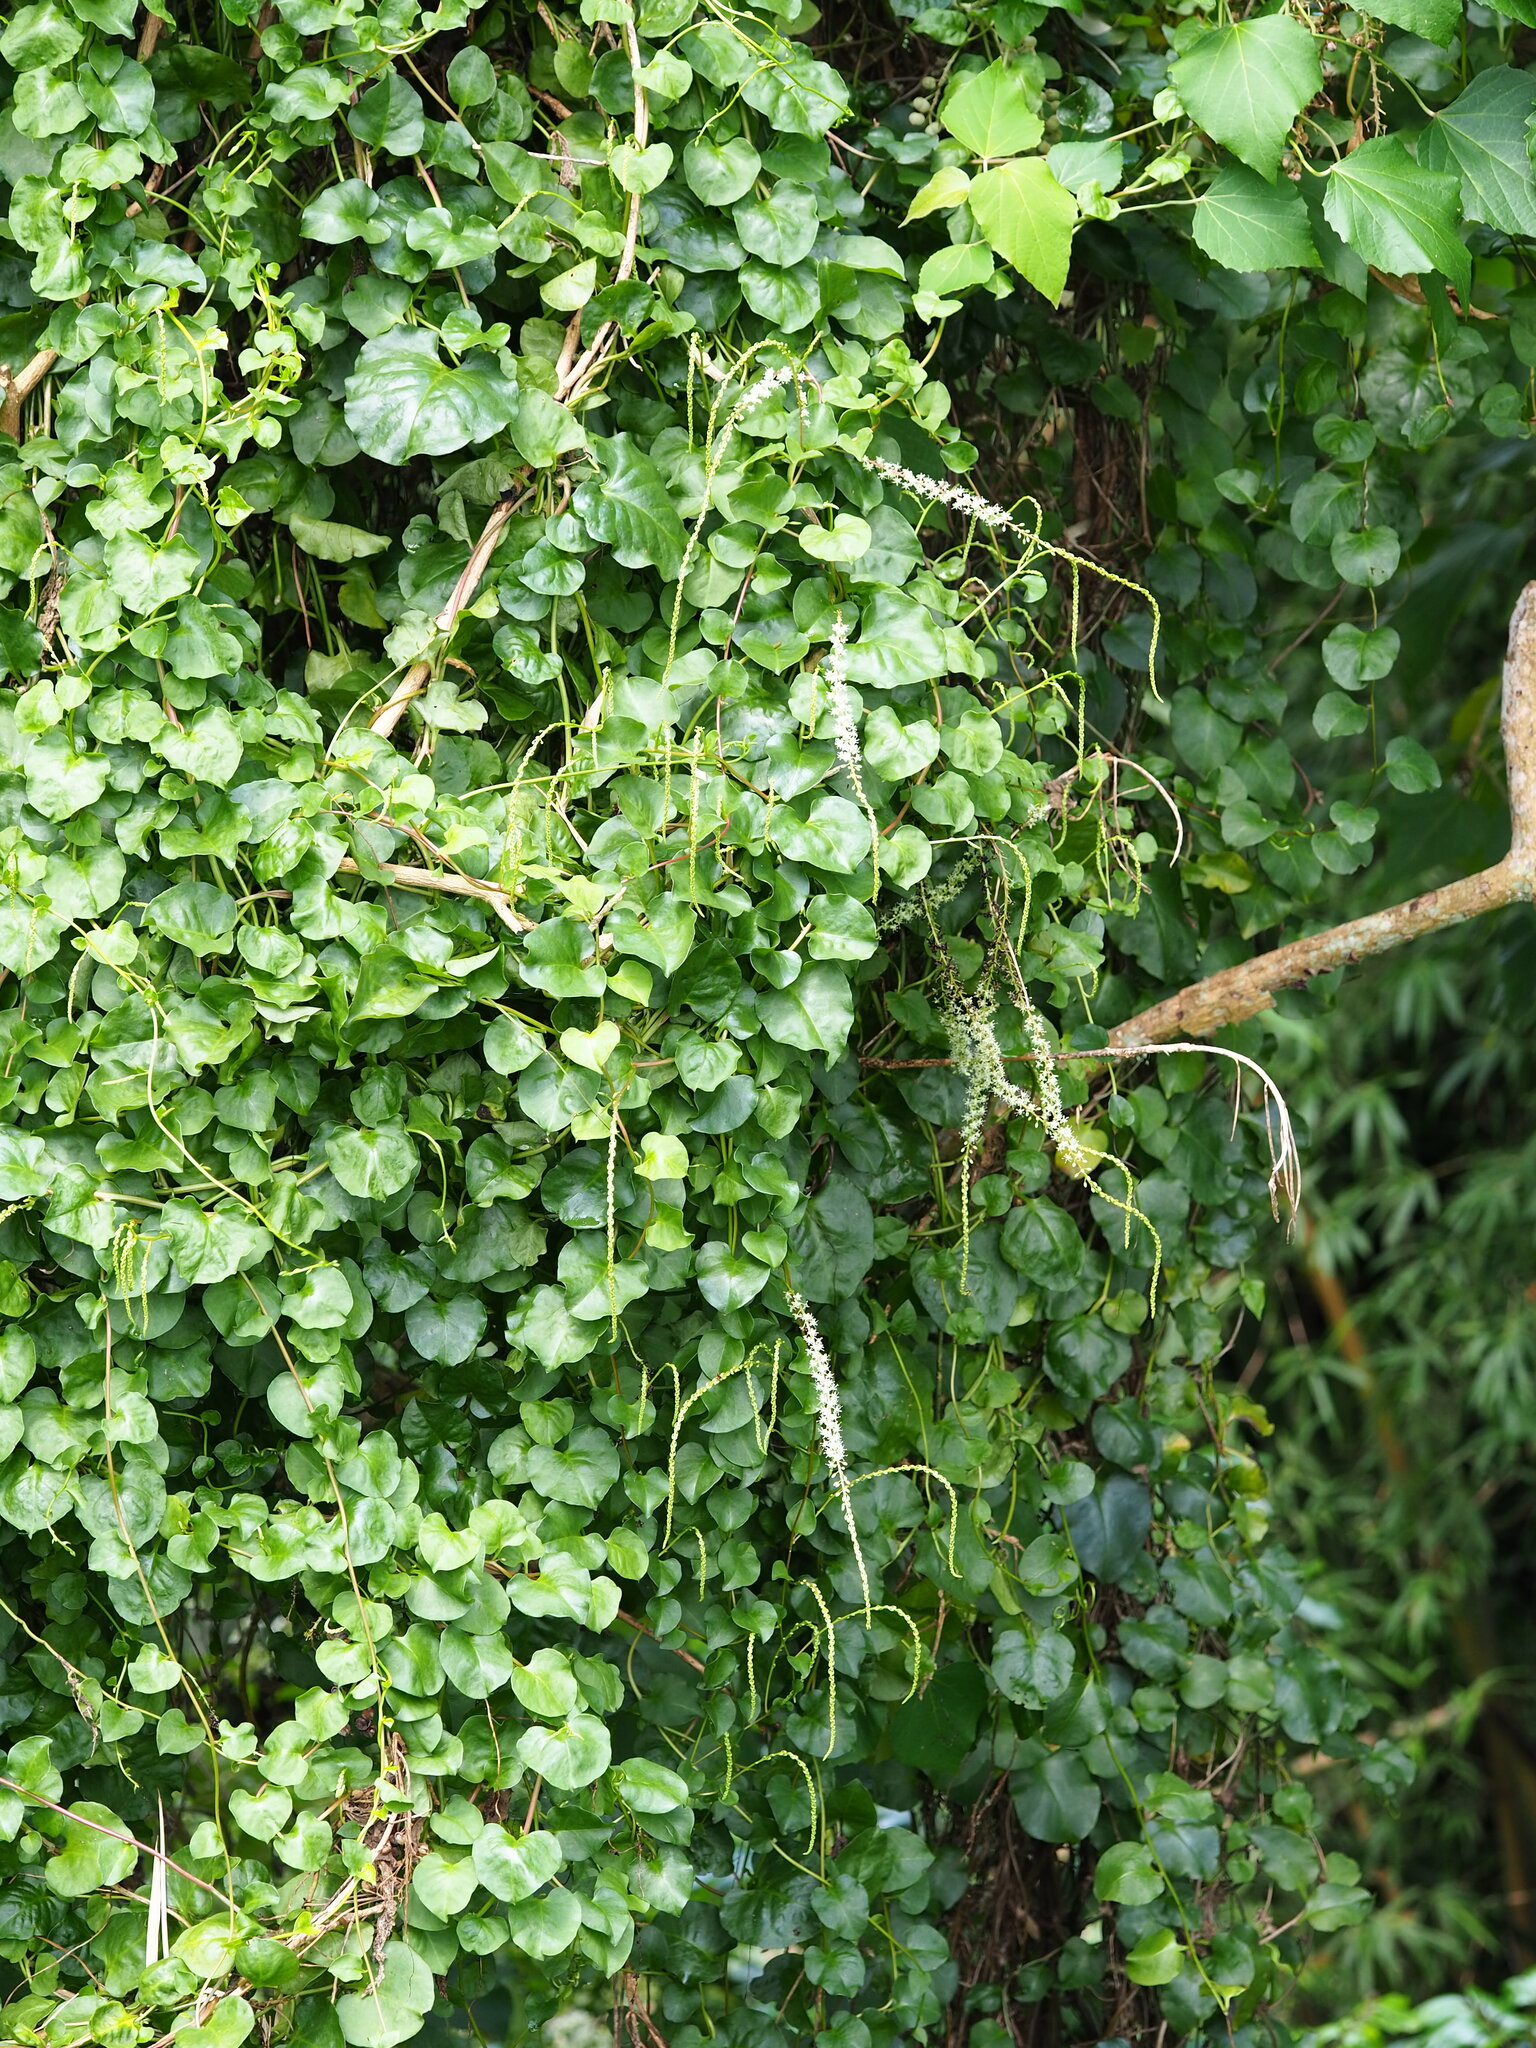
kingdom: Plantae
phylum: Tracheophyta
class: Magnoliopsida
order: Caryophyllales
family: Basellaceae
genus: Anredera
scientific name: Anredera cordifolia
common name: Heartleaf madeiravine
